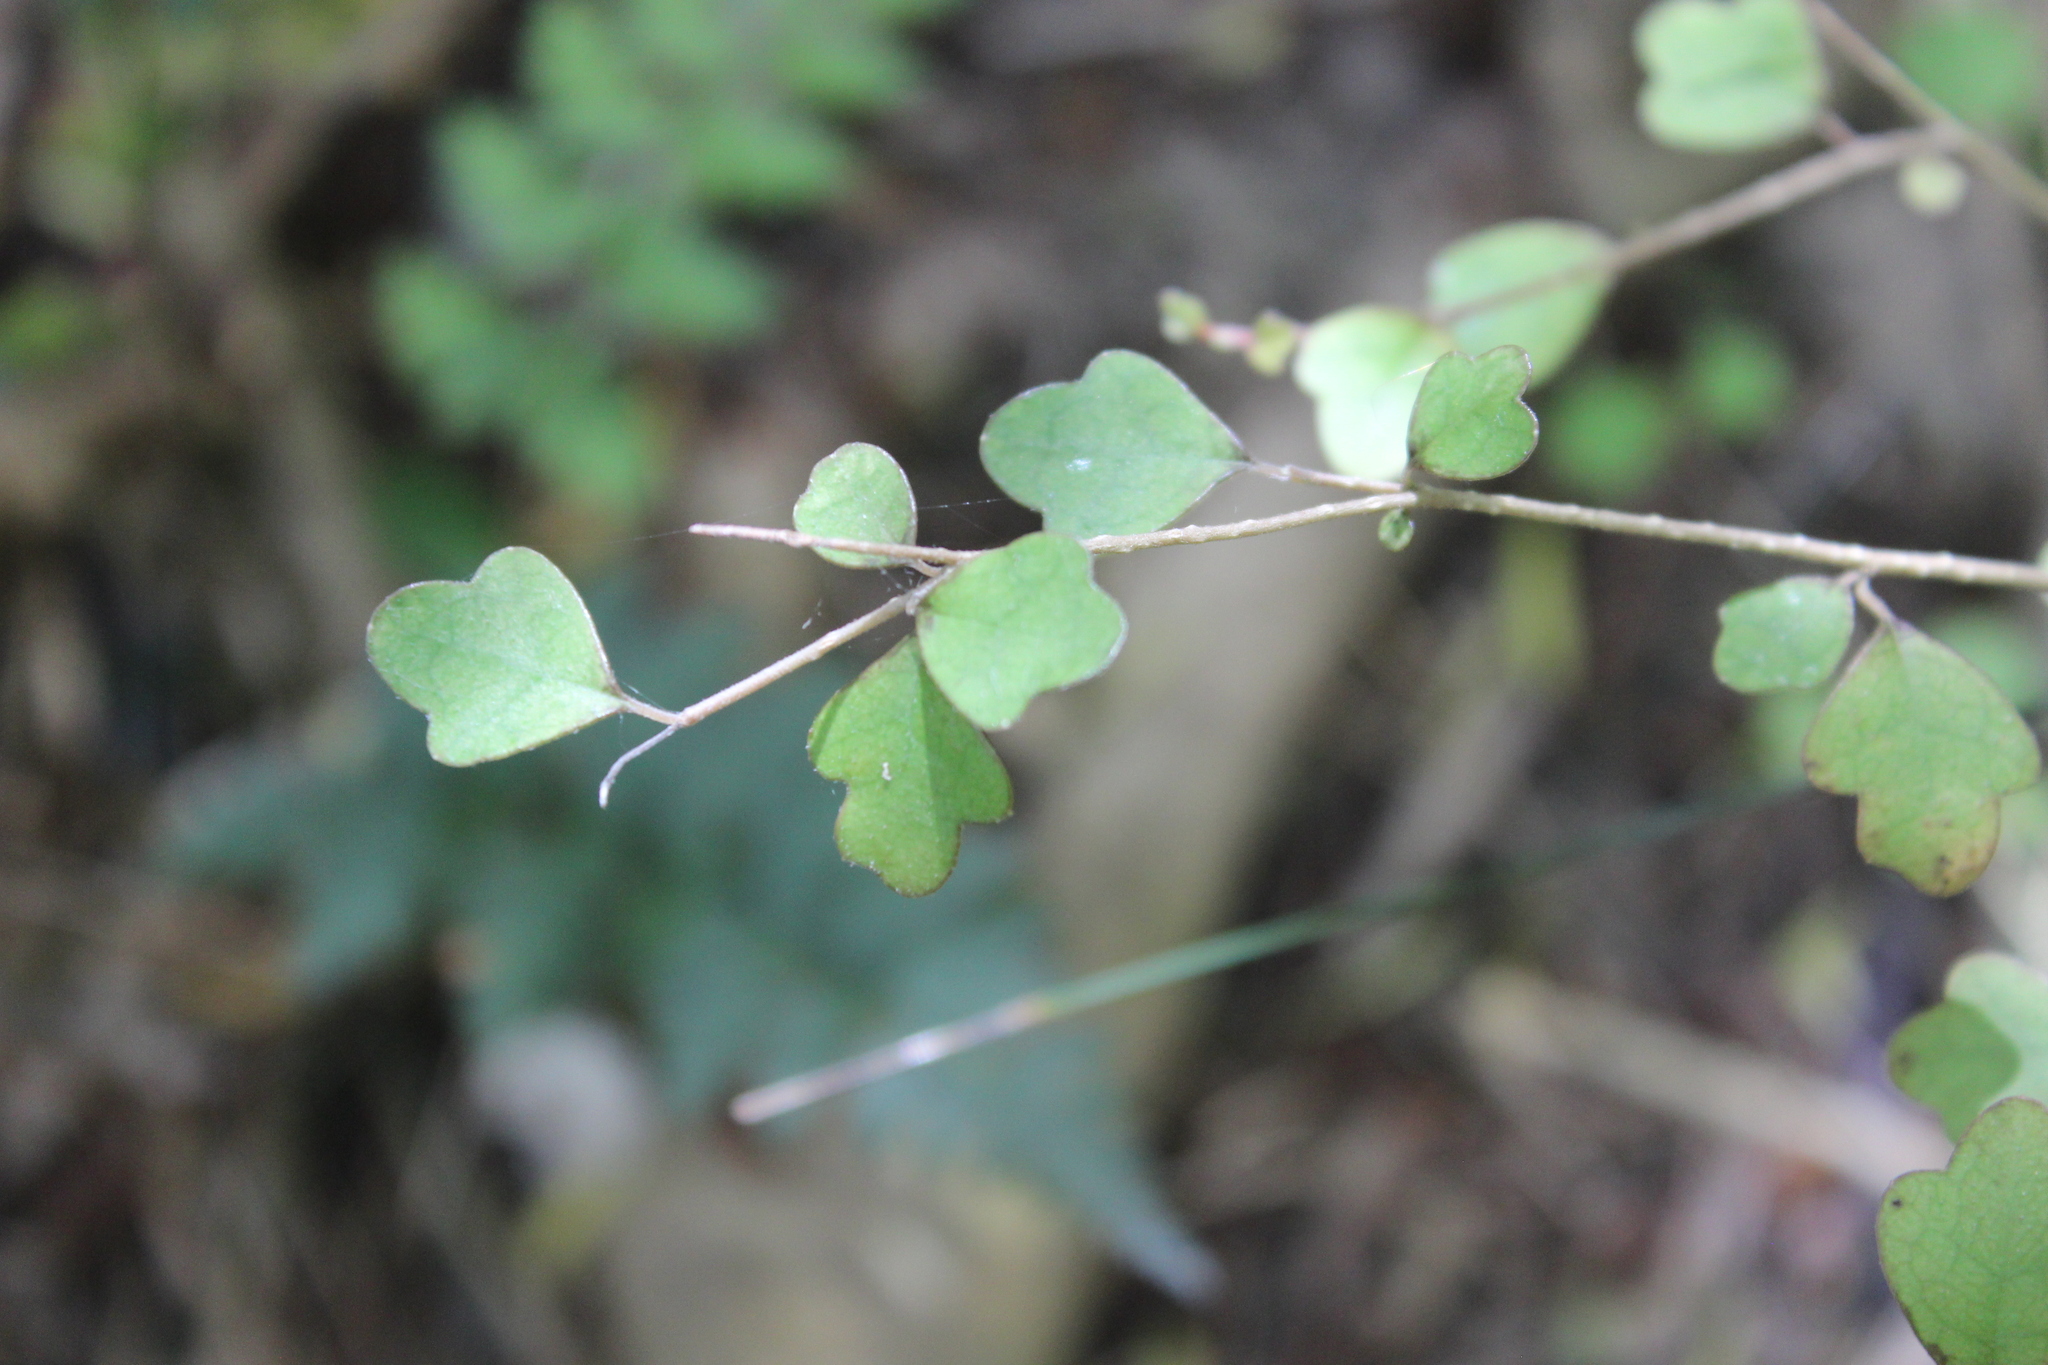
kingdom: Plantae
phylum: Tracheophyta
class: Magnoliopsida
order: Apiales
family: Pennantiaceae
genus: Pennantia
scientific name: Pennantia corymbosa
